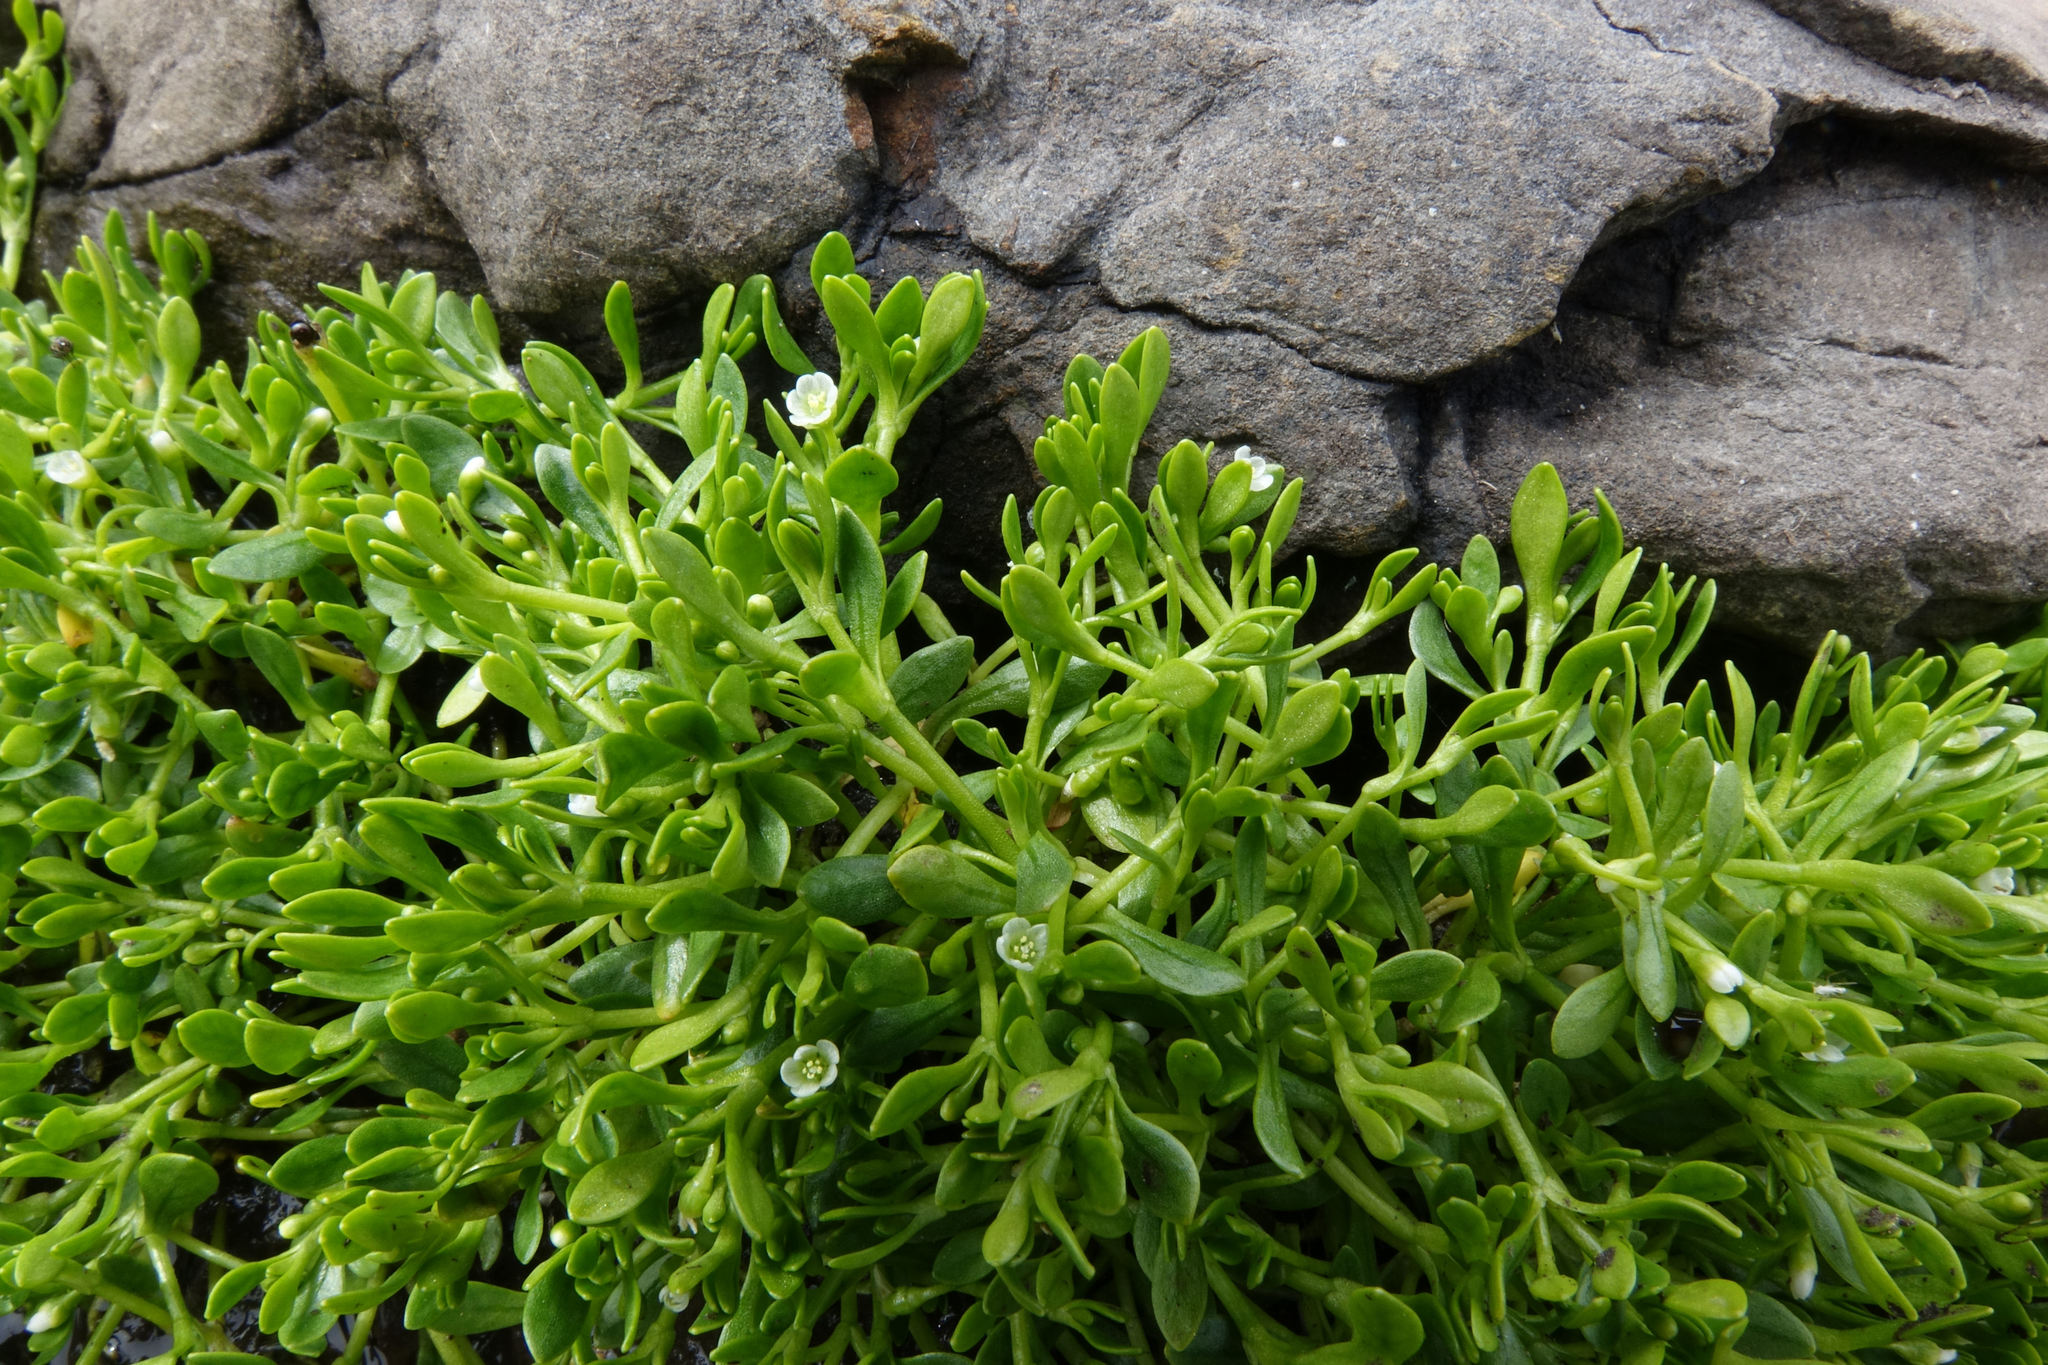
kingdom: Plantae
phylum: Tracheophyta
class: Magnoliopsida
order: Caryophyllales
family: Montiaceae
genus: Montia
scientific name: Montia fontana
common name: Blinks
